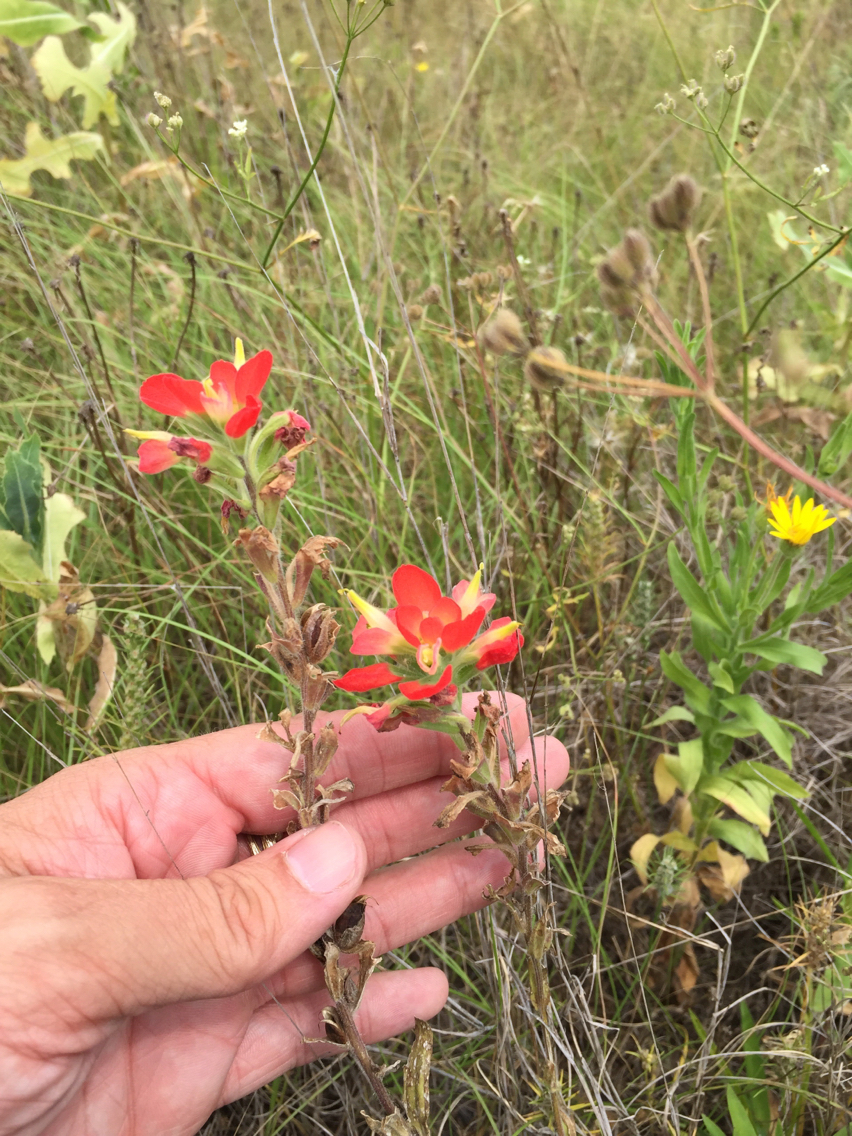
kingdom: Plantae
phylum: Tracheophyta
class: Magnoliopsida
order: Lamiales
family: Orobanchaceae
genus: Castilleja
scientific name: Castilleja indivisa
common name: Texas paintbrush
